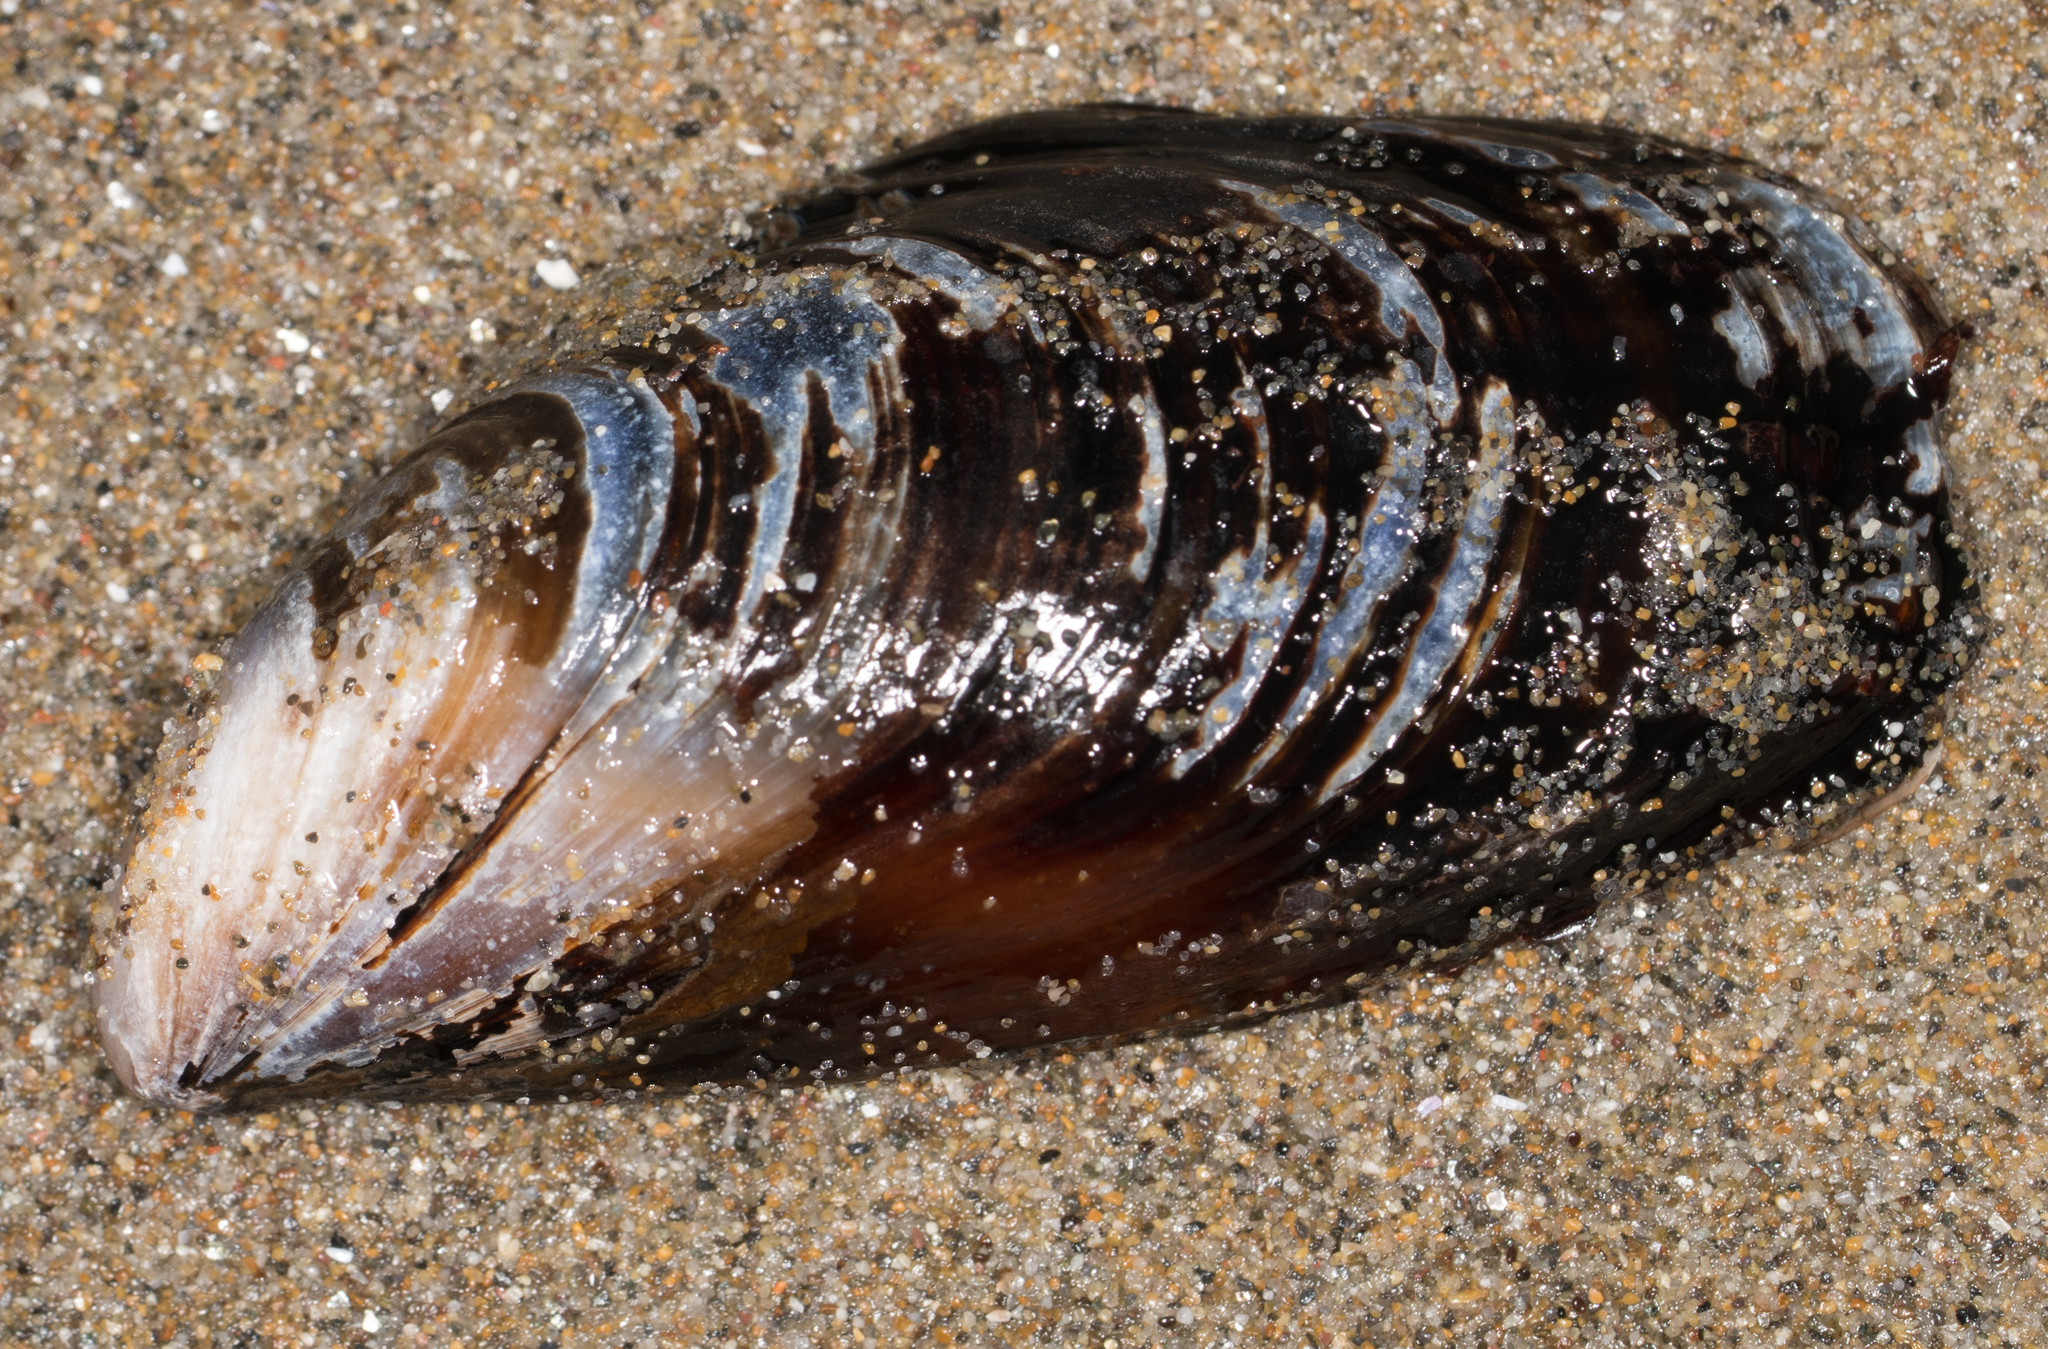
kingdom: Animalia
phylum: Mollusca
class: Bivalvia
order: Mytilida
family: Mytilidae
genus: Mytilus
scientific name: Mytilus californianus
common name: California mussel
